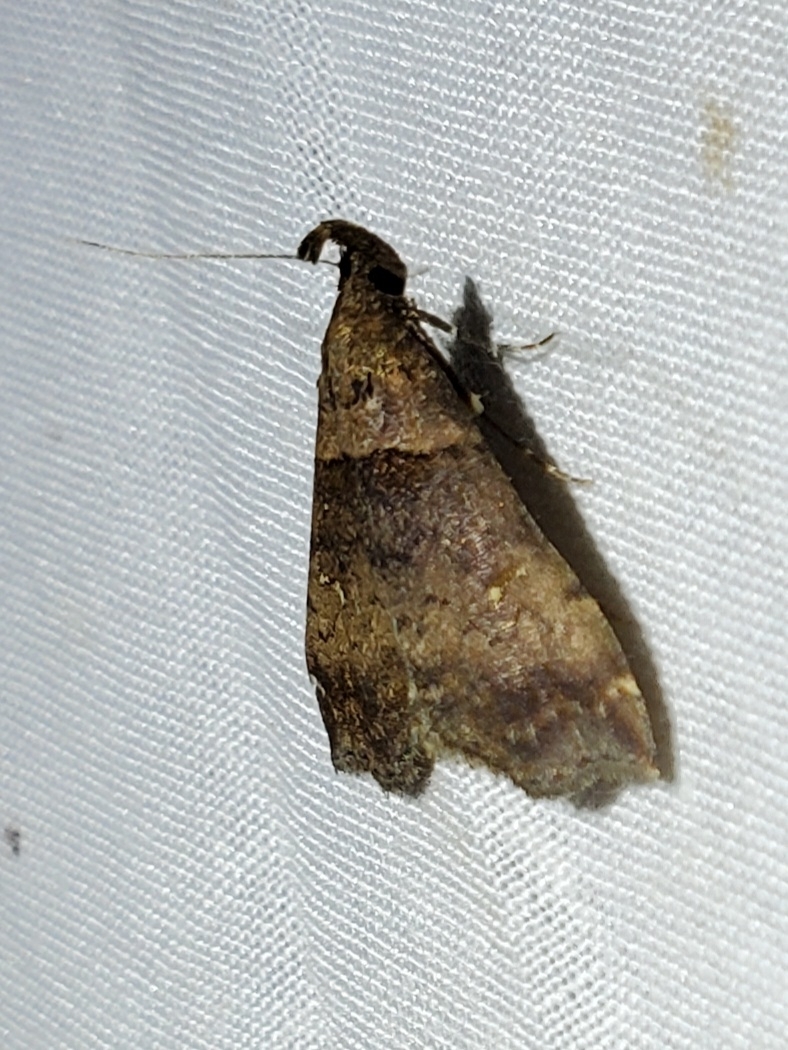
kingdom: Animalia
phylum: Arthropoda
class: Insecta
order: Lepidoptera
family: Erebidae
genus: Lascoria
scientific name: Lascoria ambigualis
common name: Ambiguous moth
